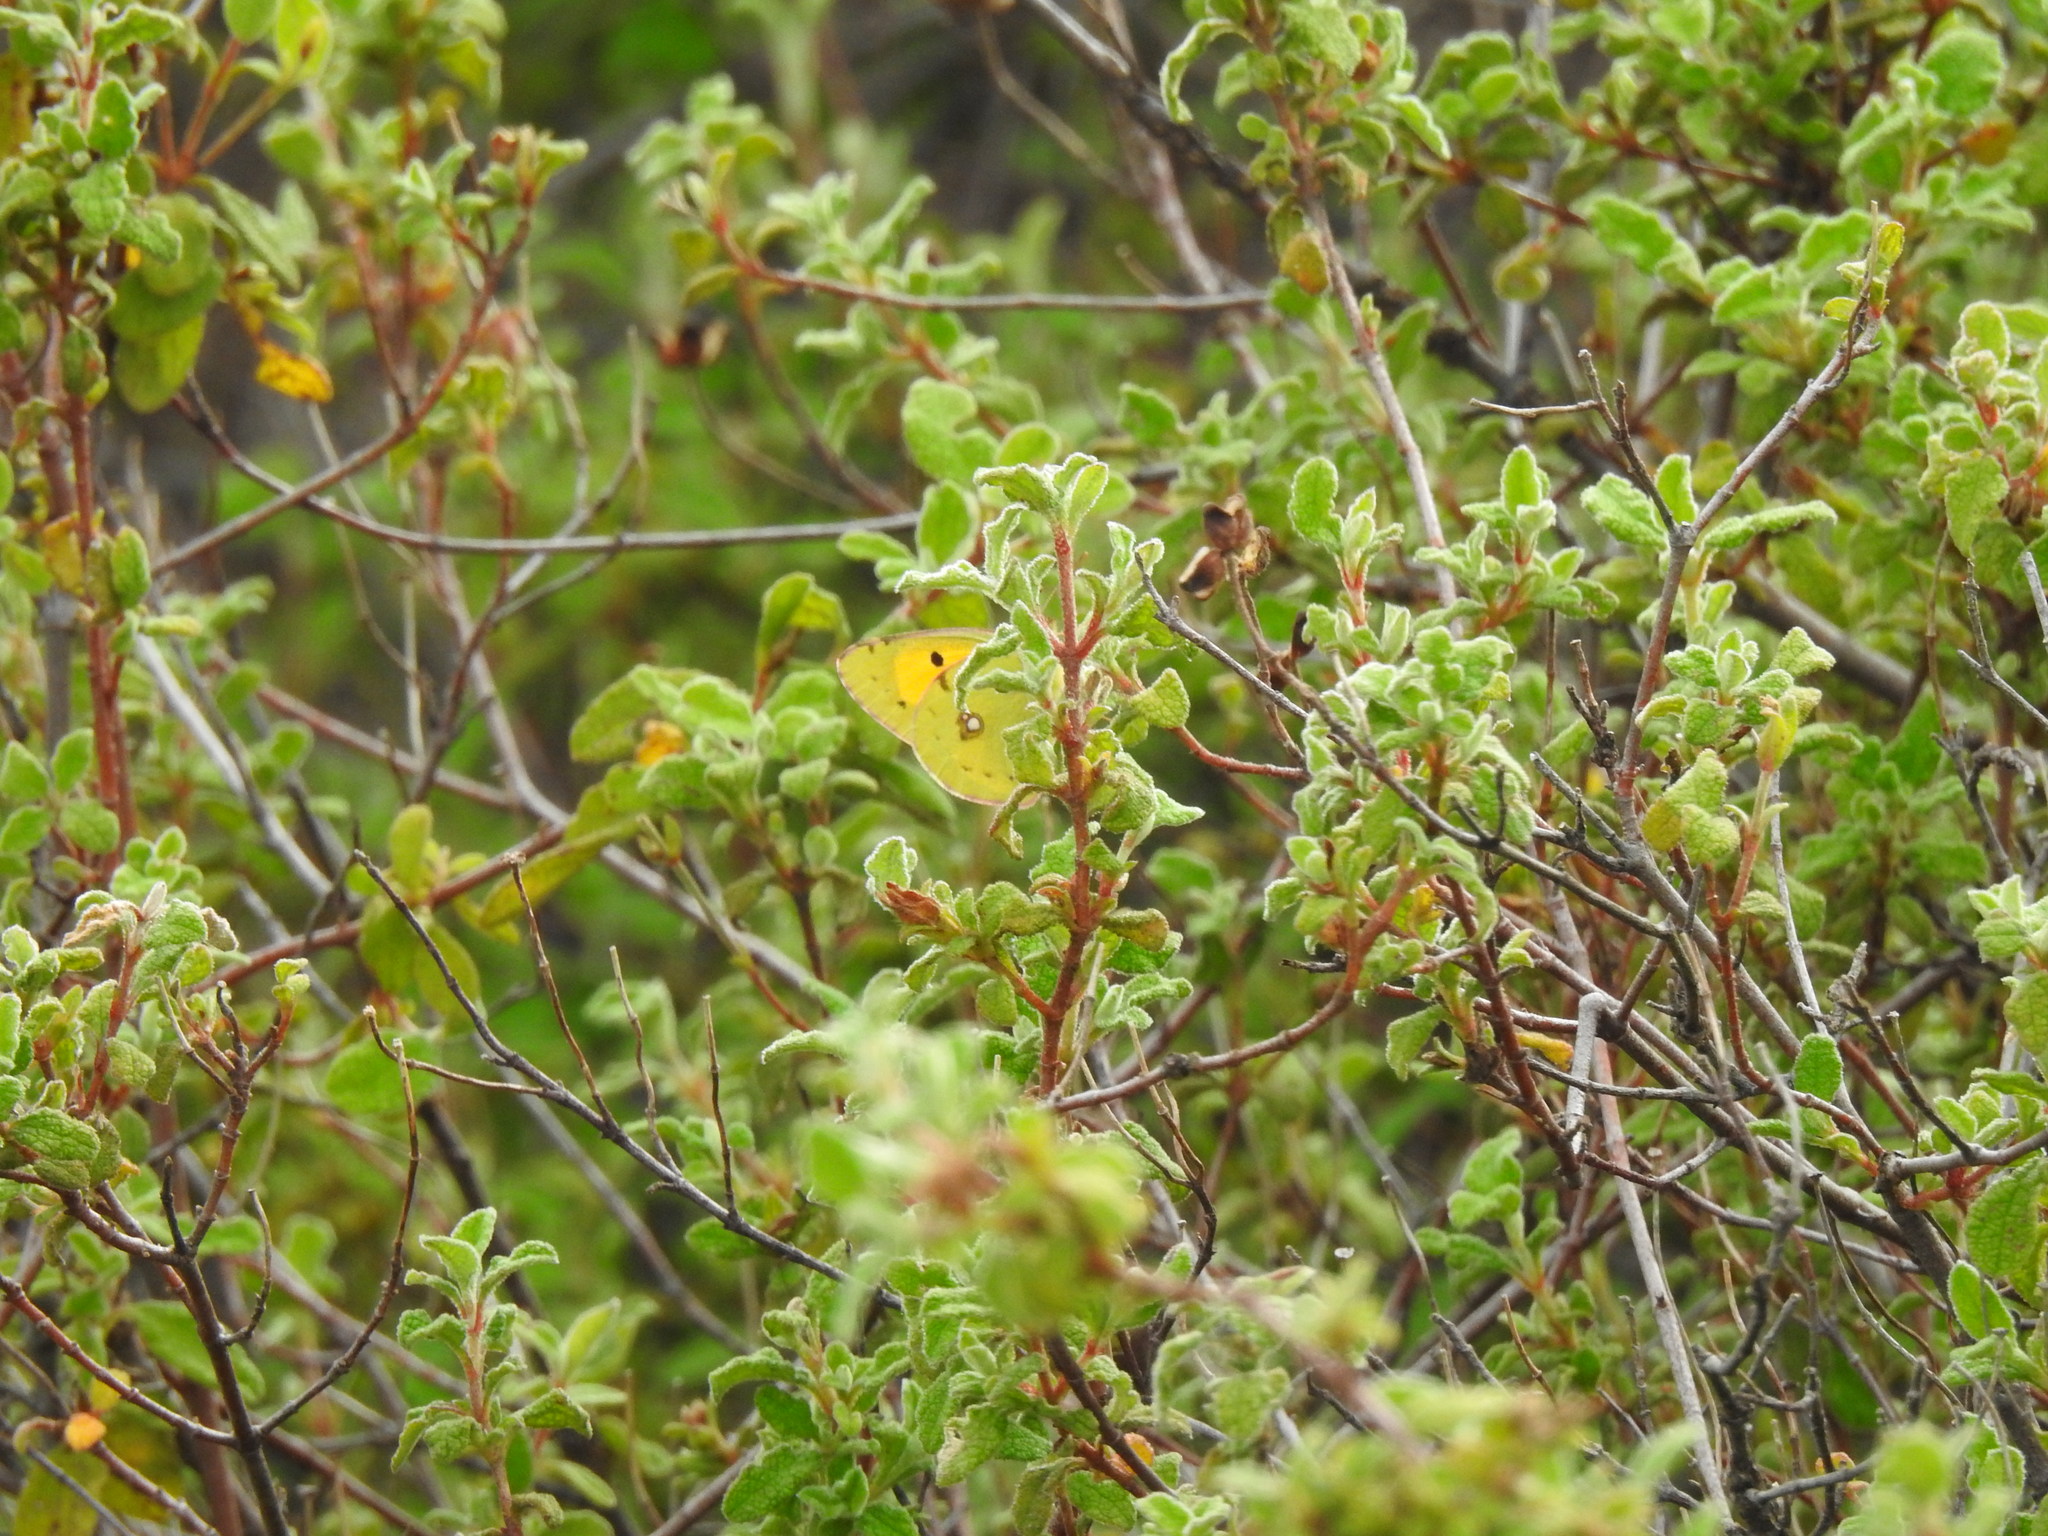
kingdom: Animalia
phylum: Arthropoda
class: Insecta
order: Lepidoptera
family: Pieridae
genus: Colias
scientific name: Colias croceus
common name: Clouded yellow
